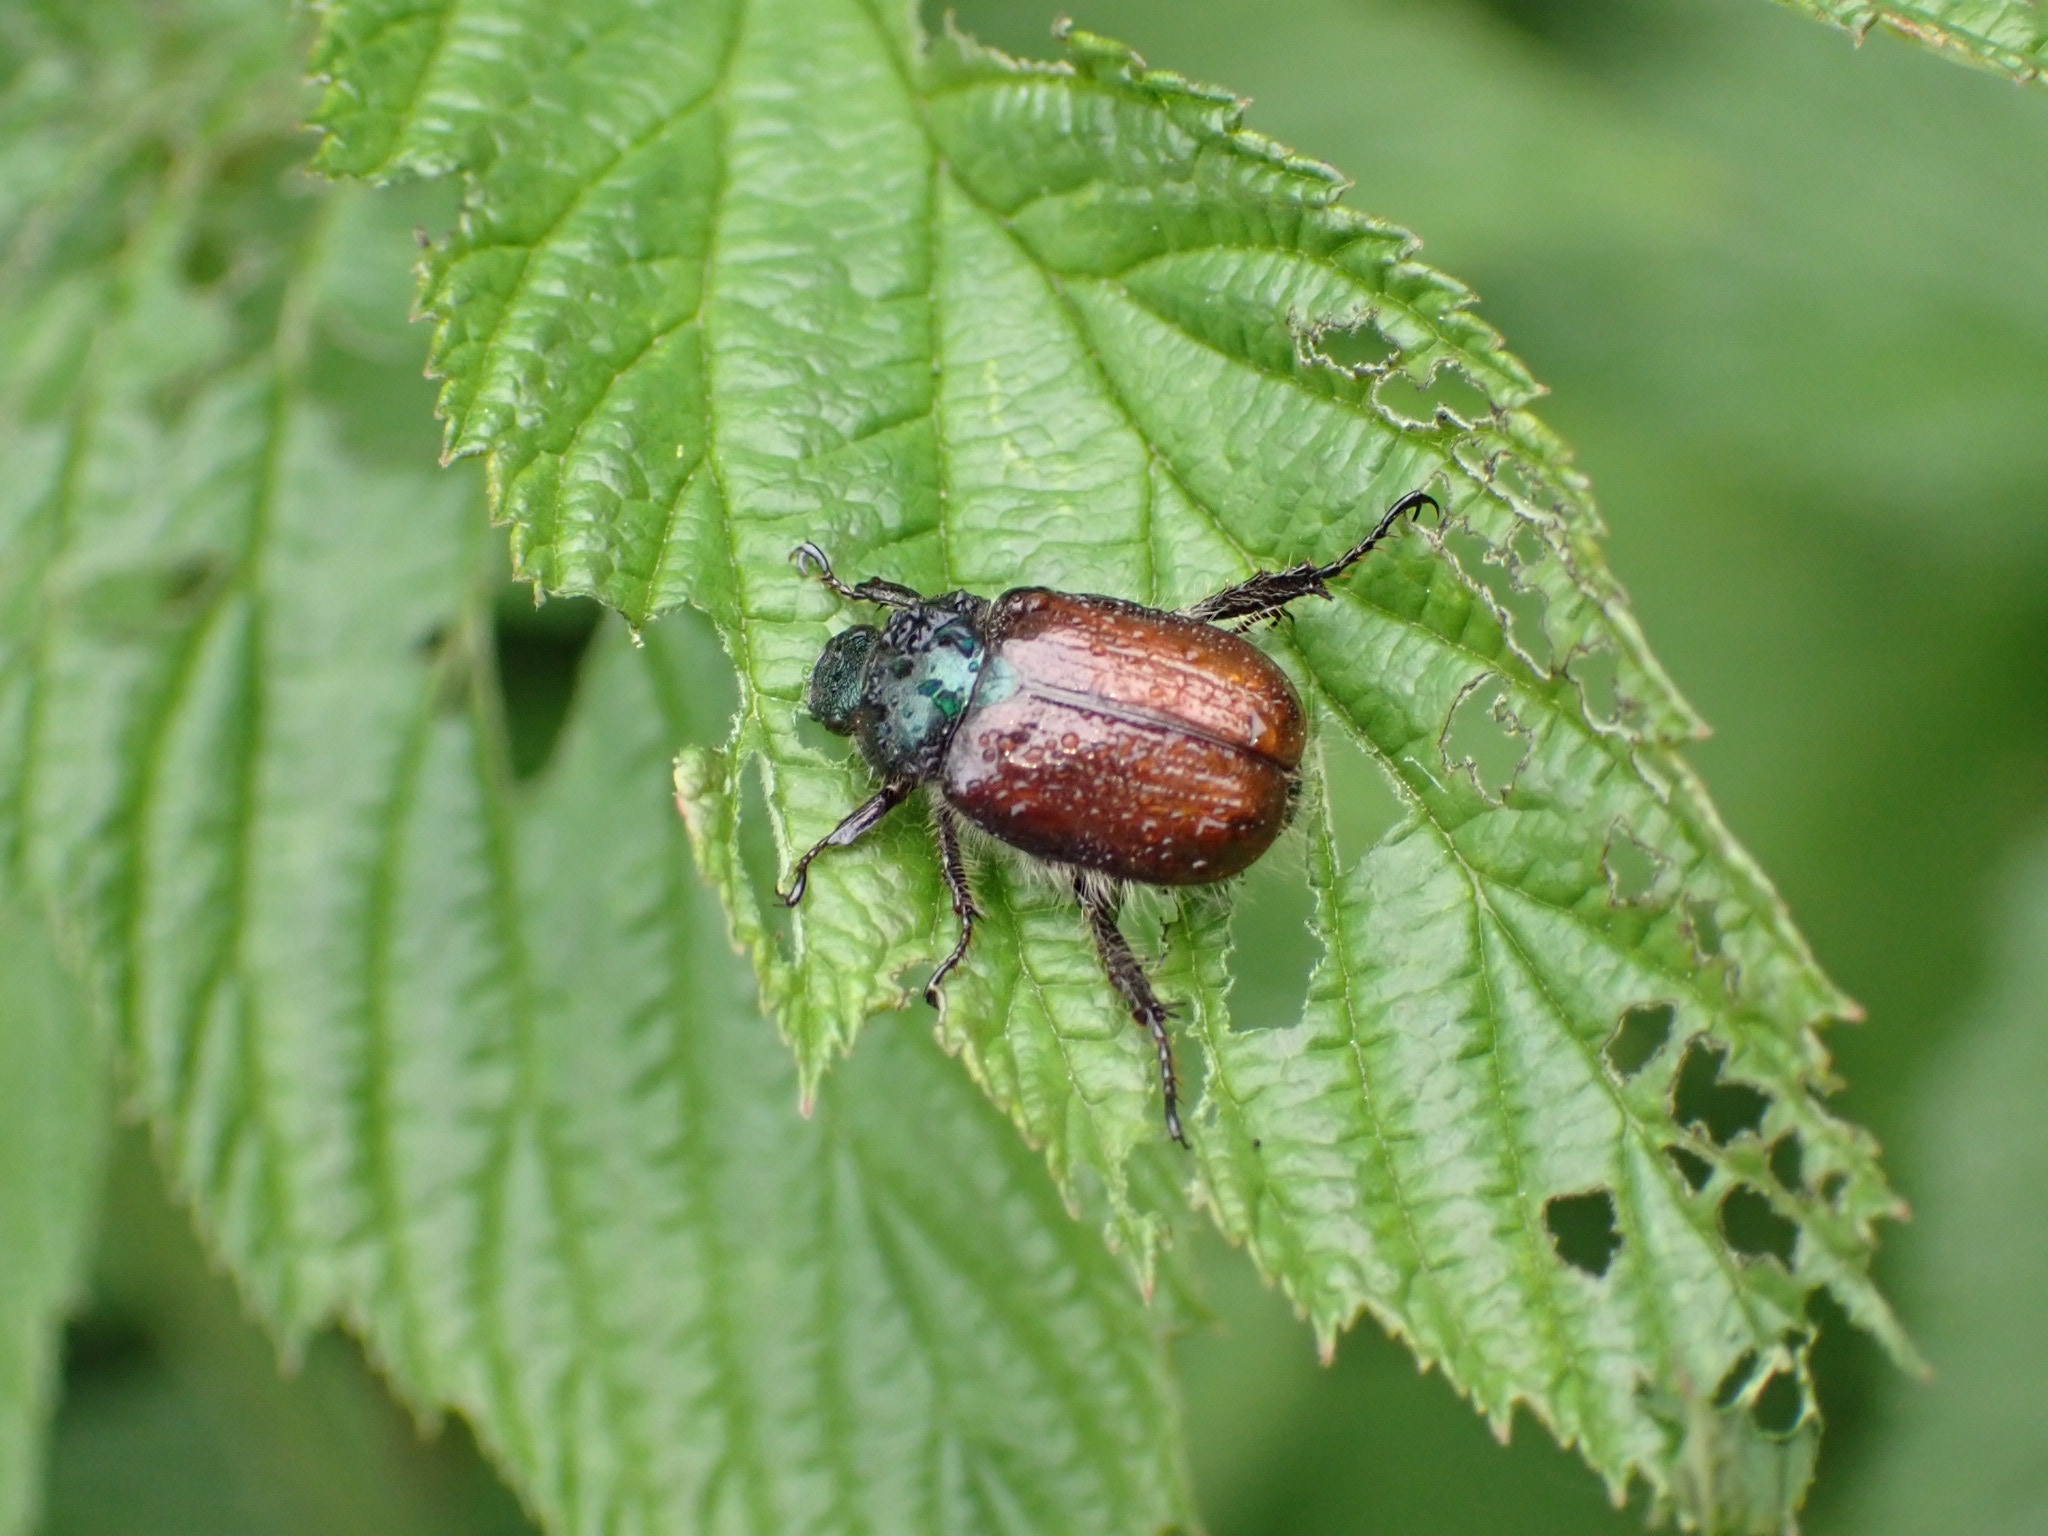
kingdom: Animalia
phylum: Arthropoda
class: Insecta
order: Coleoptera
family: Scarabaeidae
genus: Phyllopertha
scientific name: Phyllopertha horticola
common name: Garden chafer
